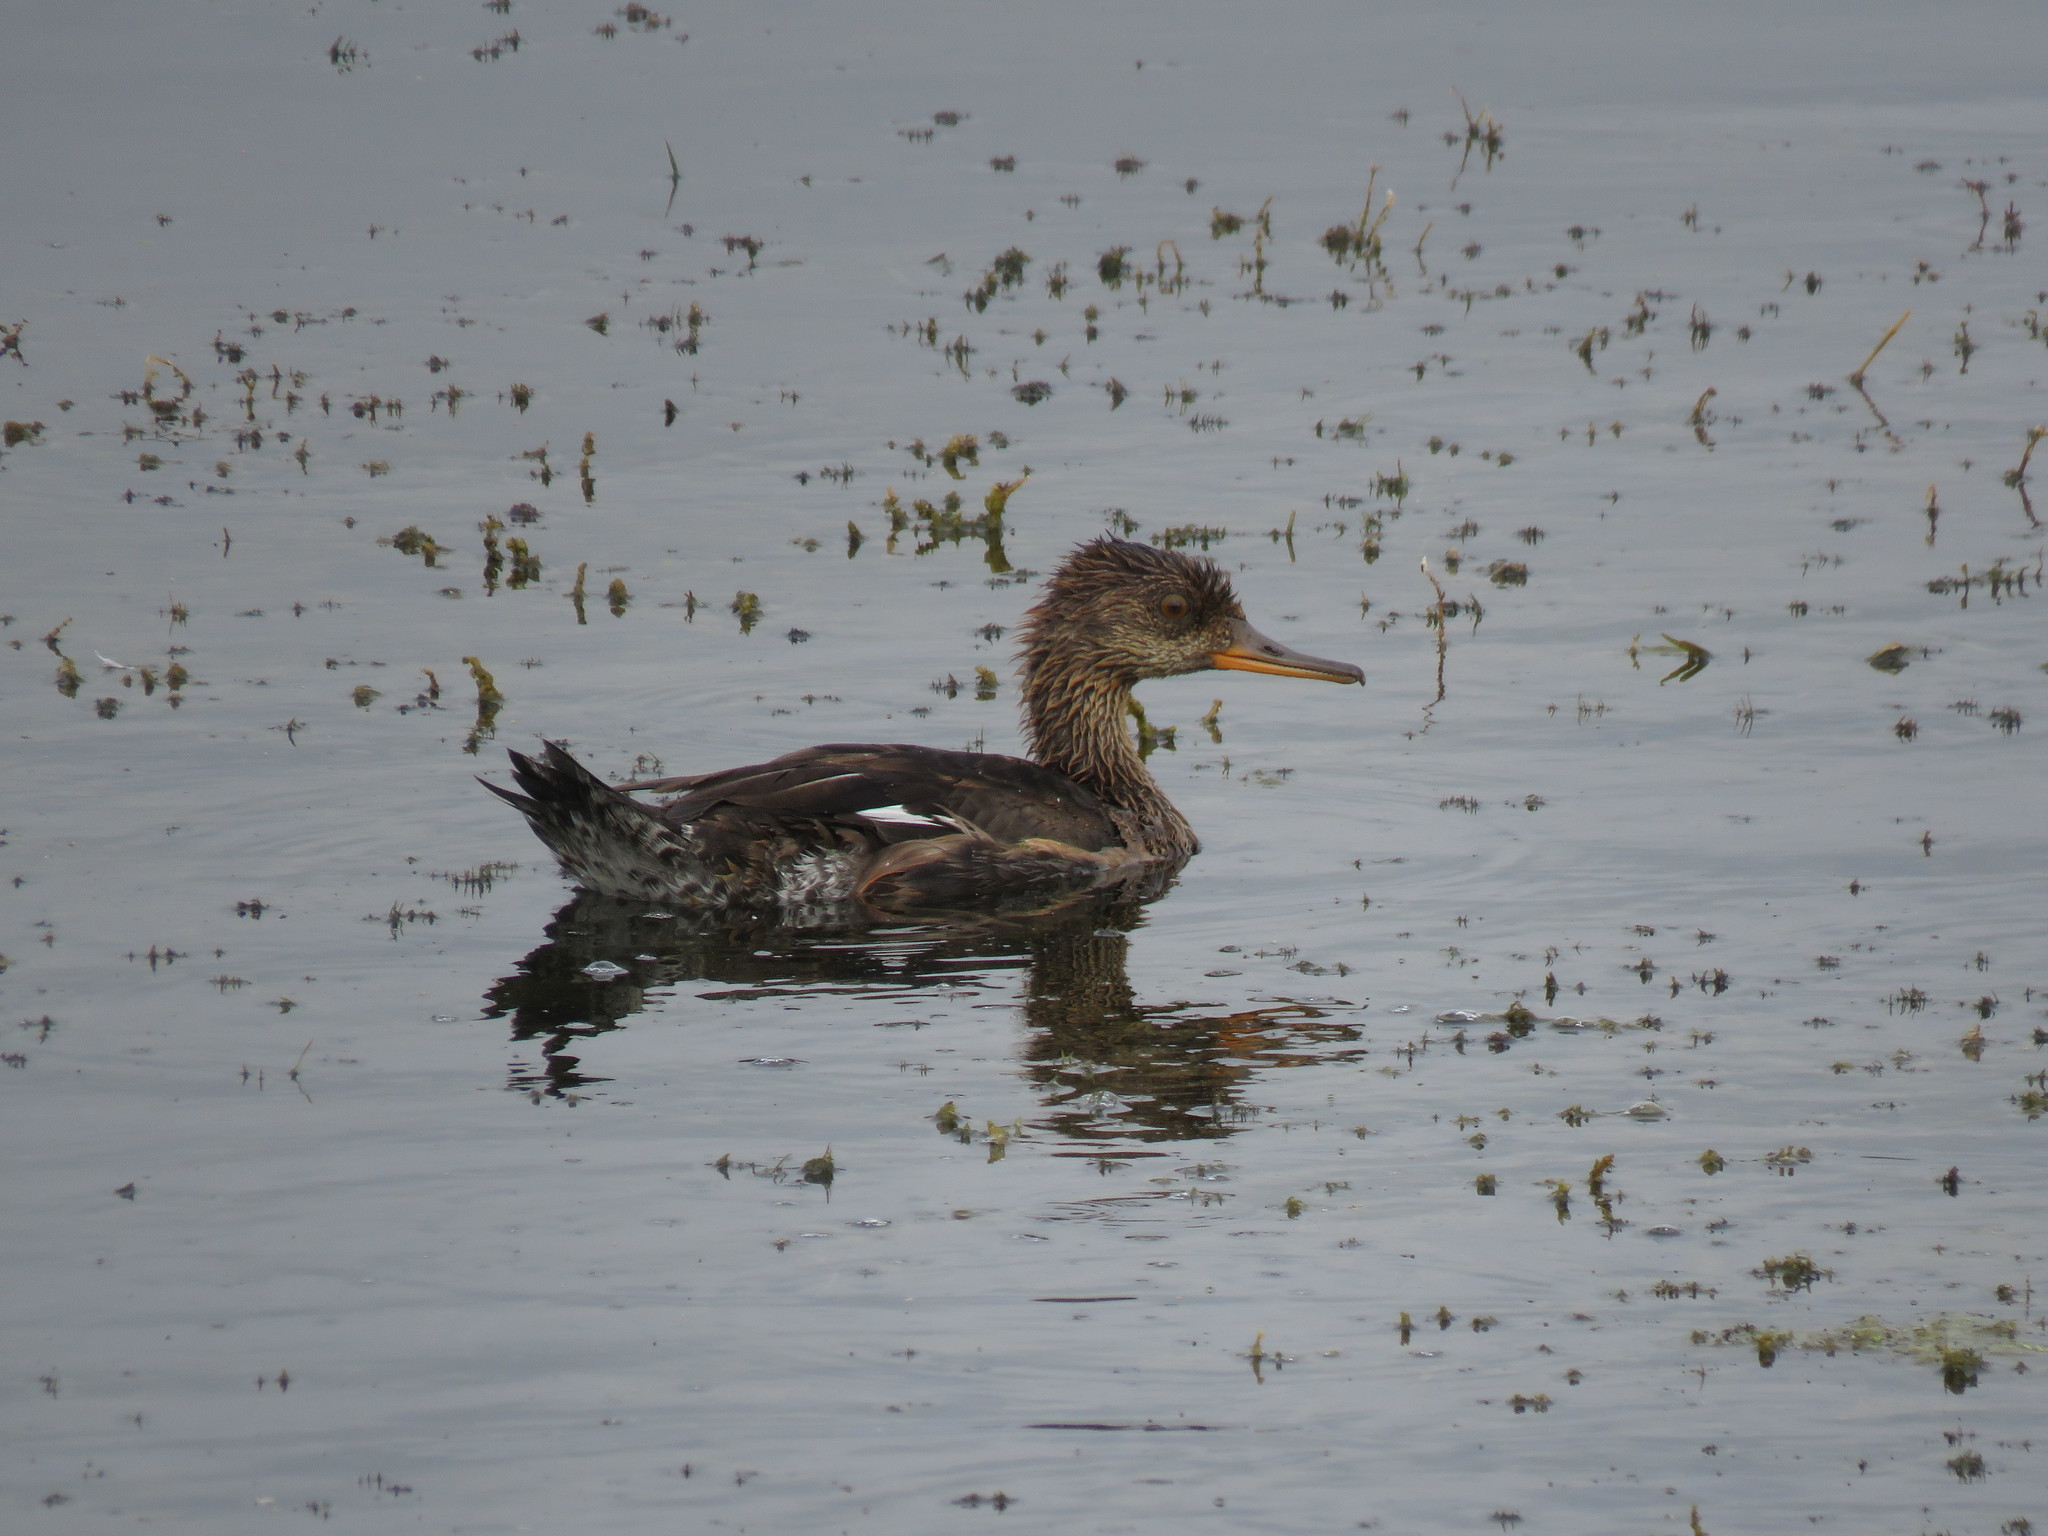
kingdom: Animalia
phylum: Chordata
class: Aves
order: Anseriformes
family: Anatidae
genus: Lophodytes
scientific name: Lophodytes cucullatus
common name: Hooded merganser
